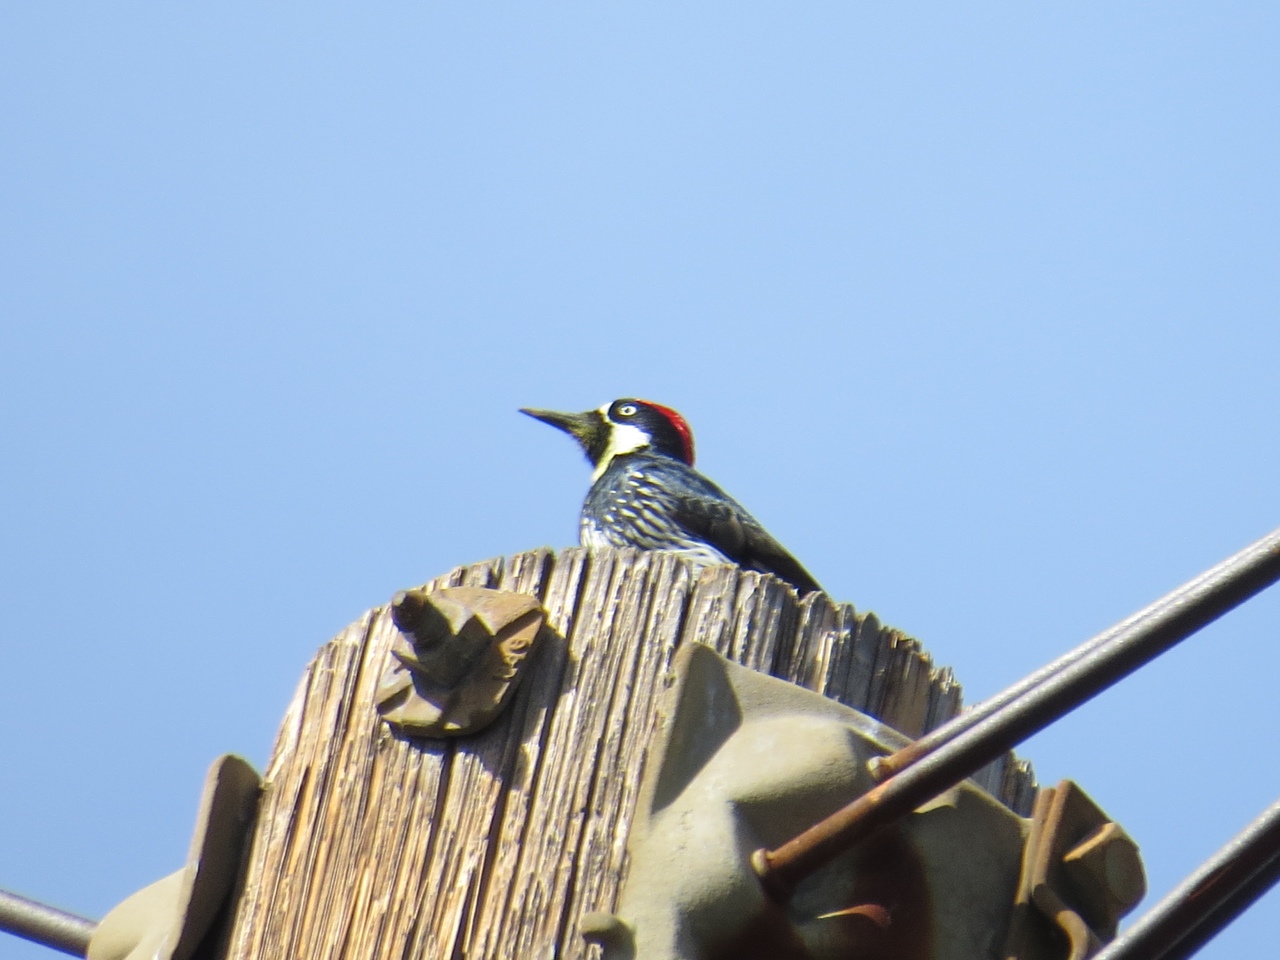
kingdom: Animalia
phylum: Chordata
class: Aves
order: Piciformes
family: Picidae
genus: Melanerpes
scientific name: Melanerpes formicivorus
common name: Acorn woodpecker
